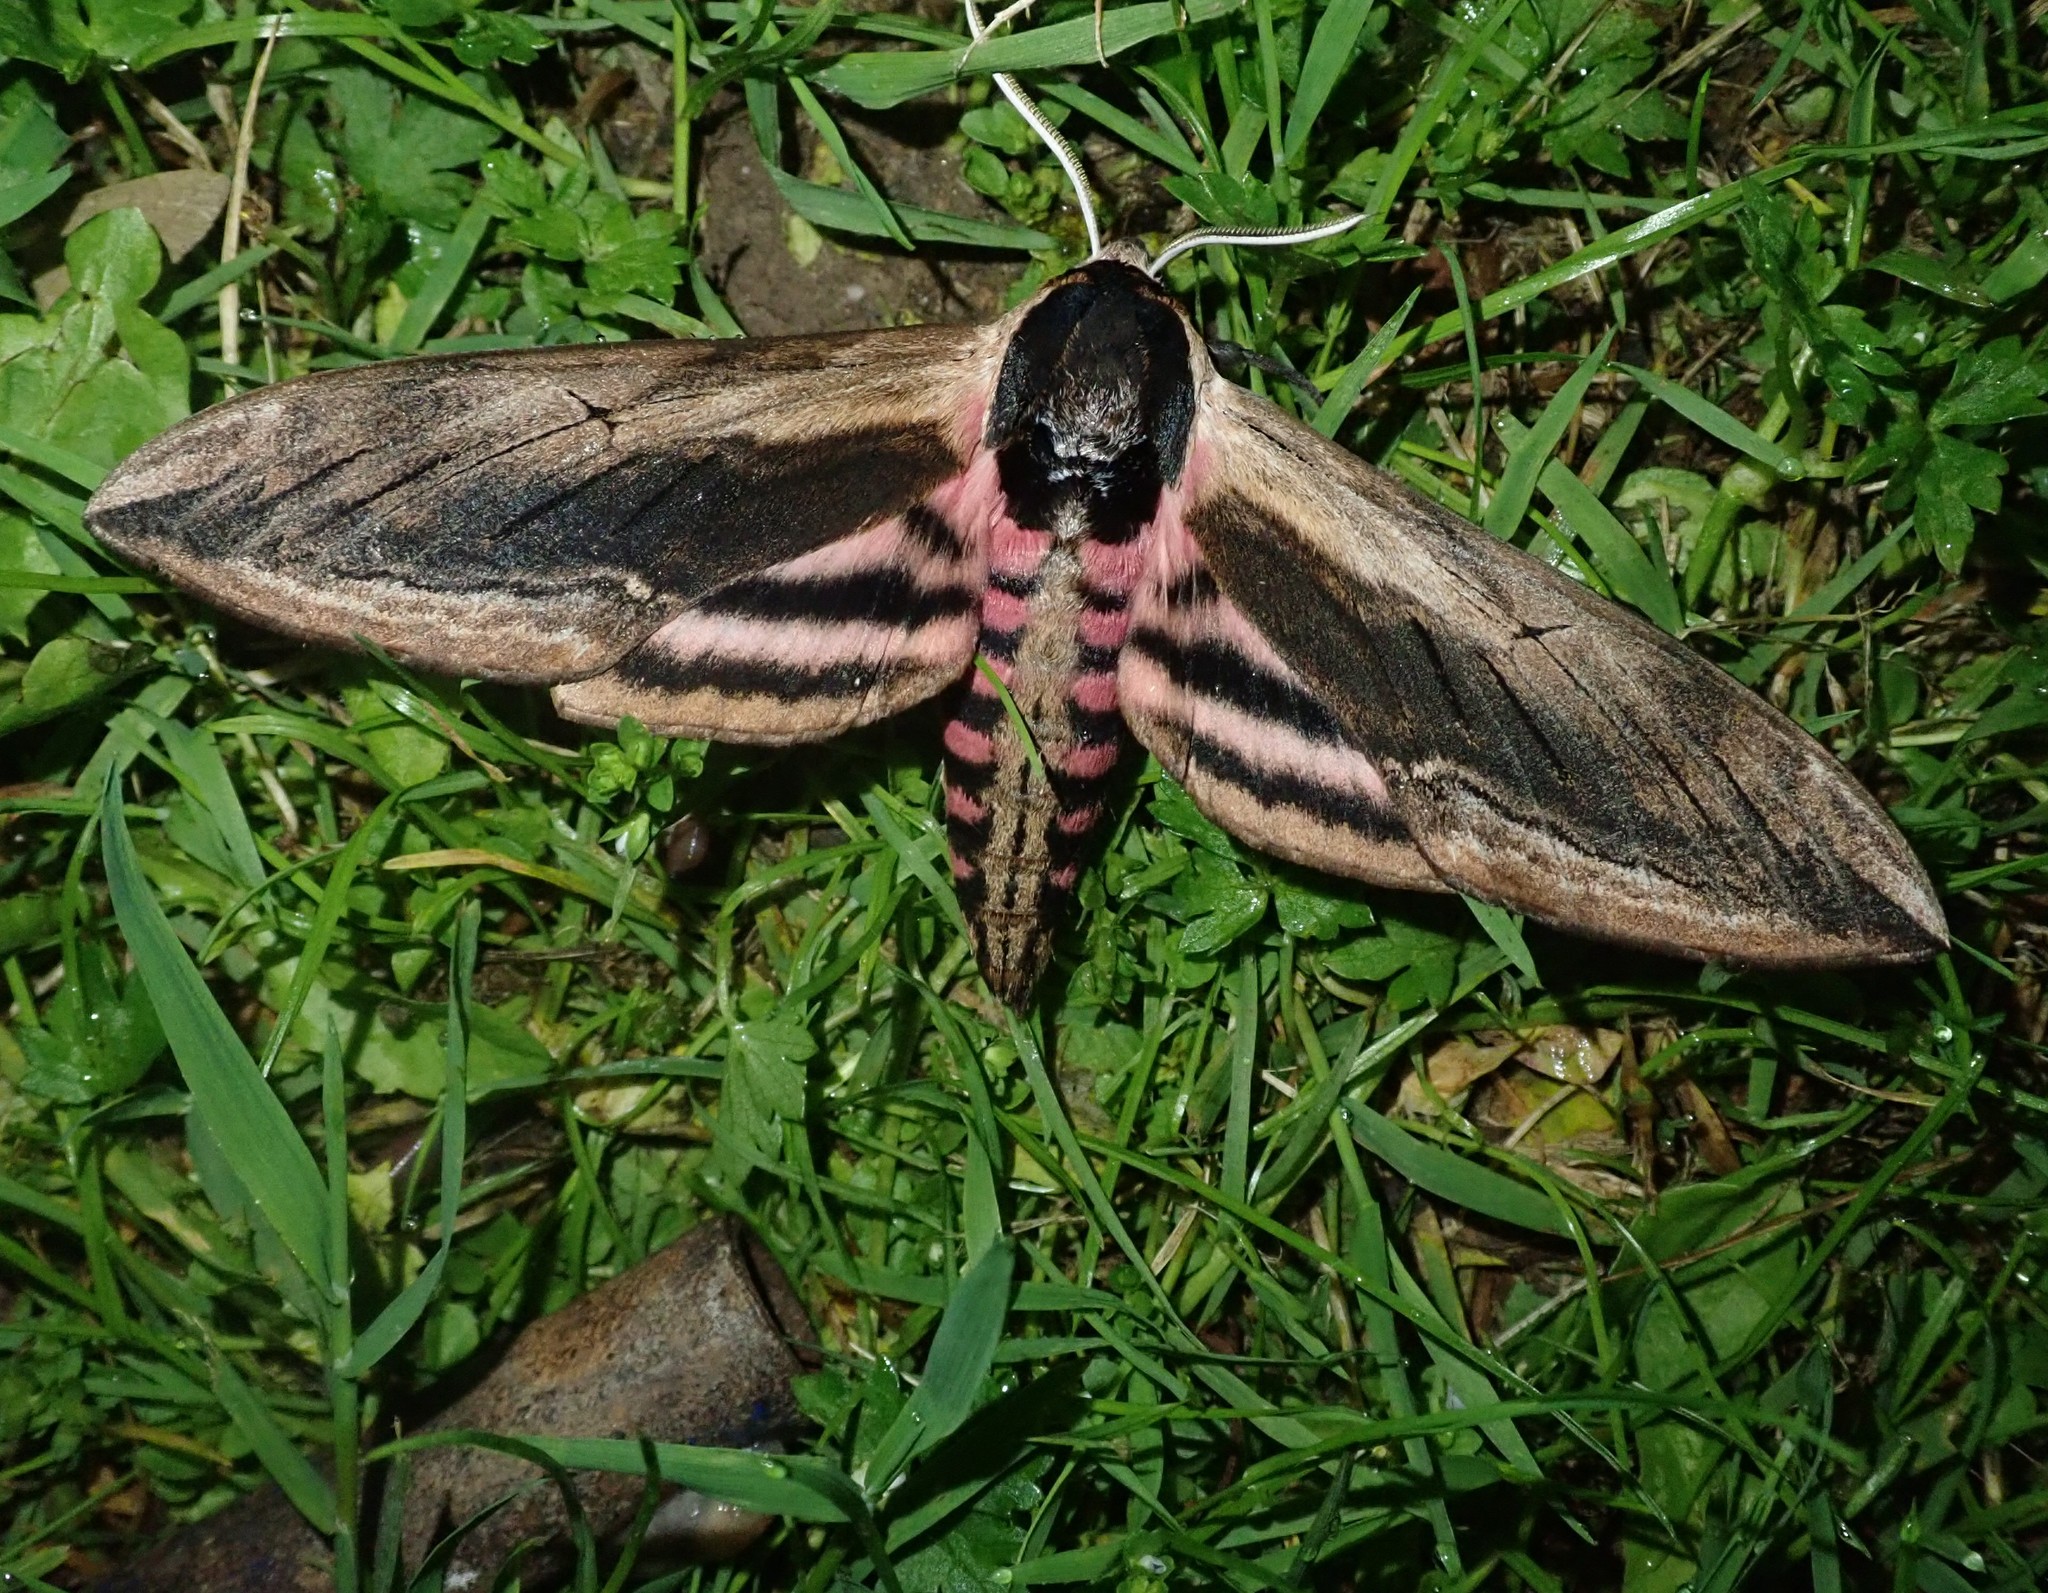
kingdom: Animalia
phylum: Arthropoda
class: Insecta
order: Lepidoptera
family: Sphingidae
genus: Sphinx
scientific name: Sphinx ligustri
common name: Privet hawk-moth
